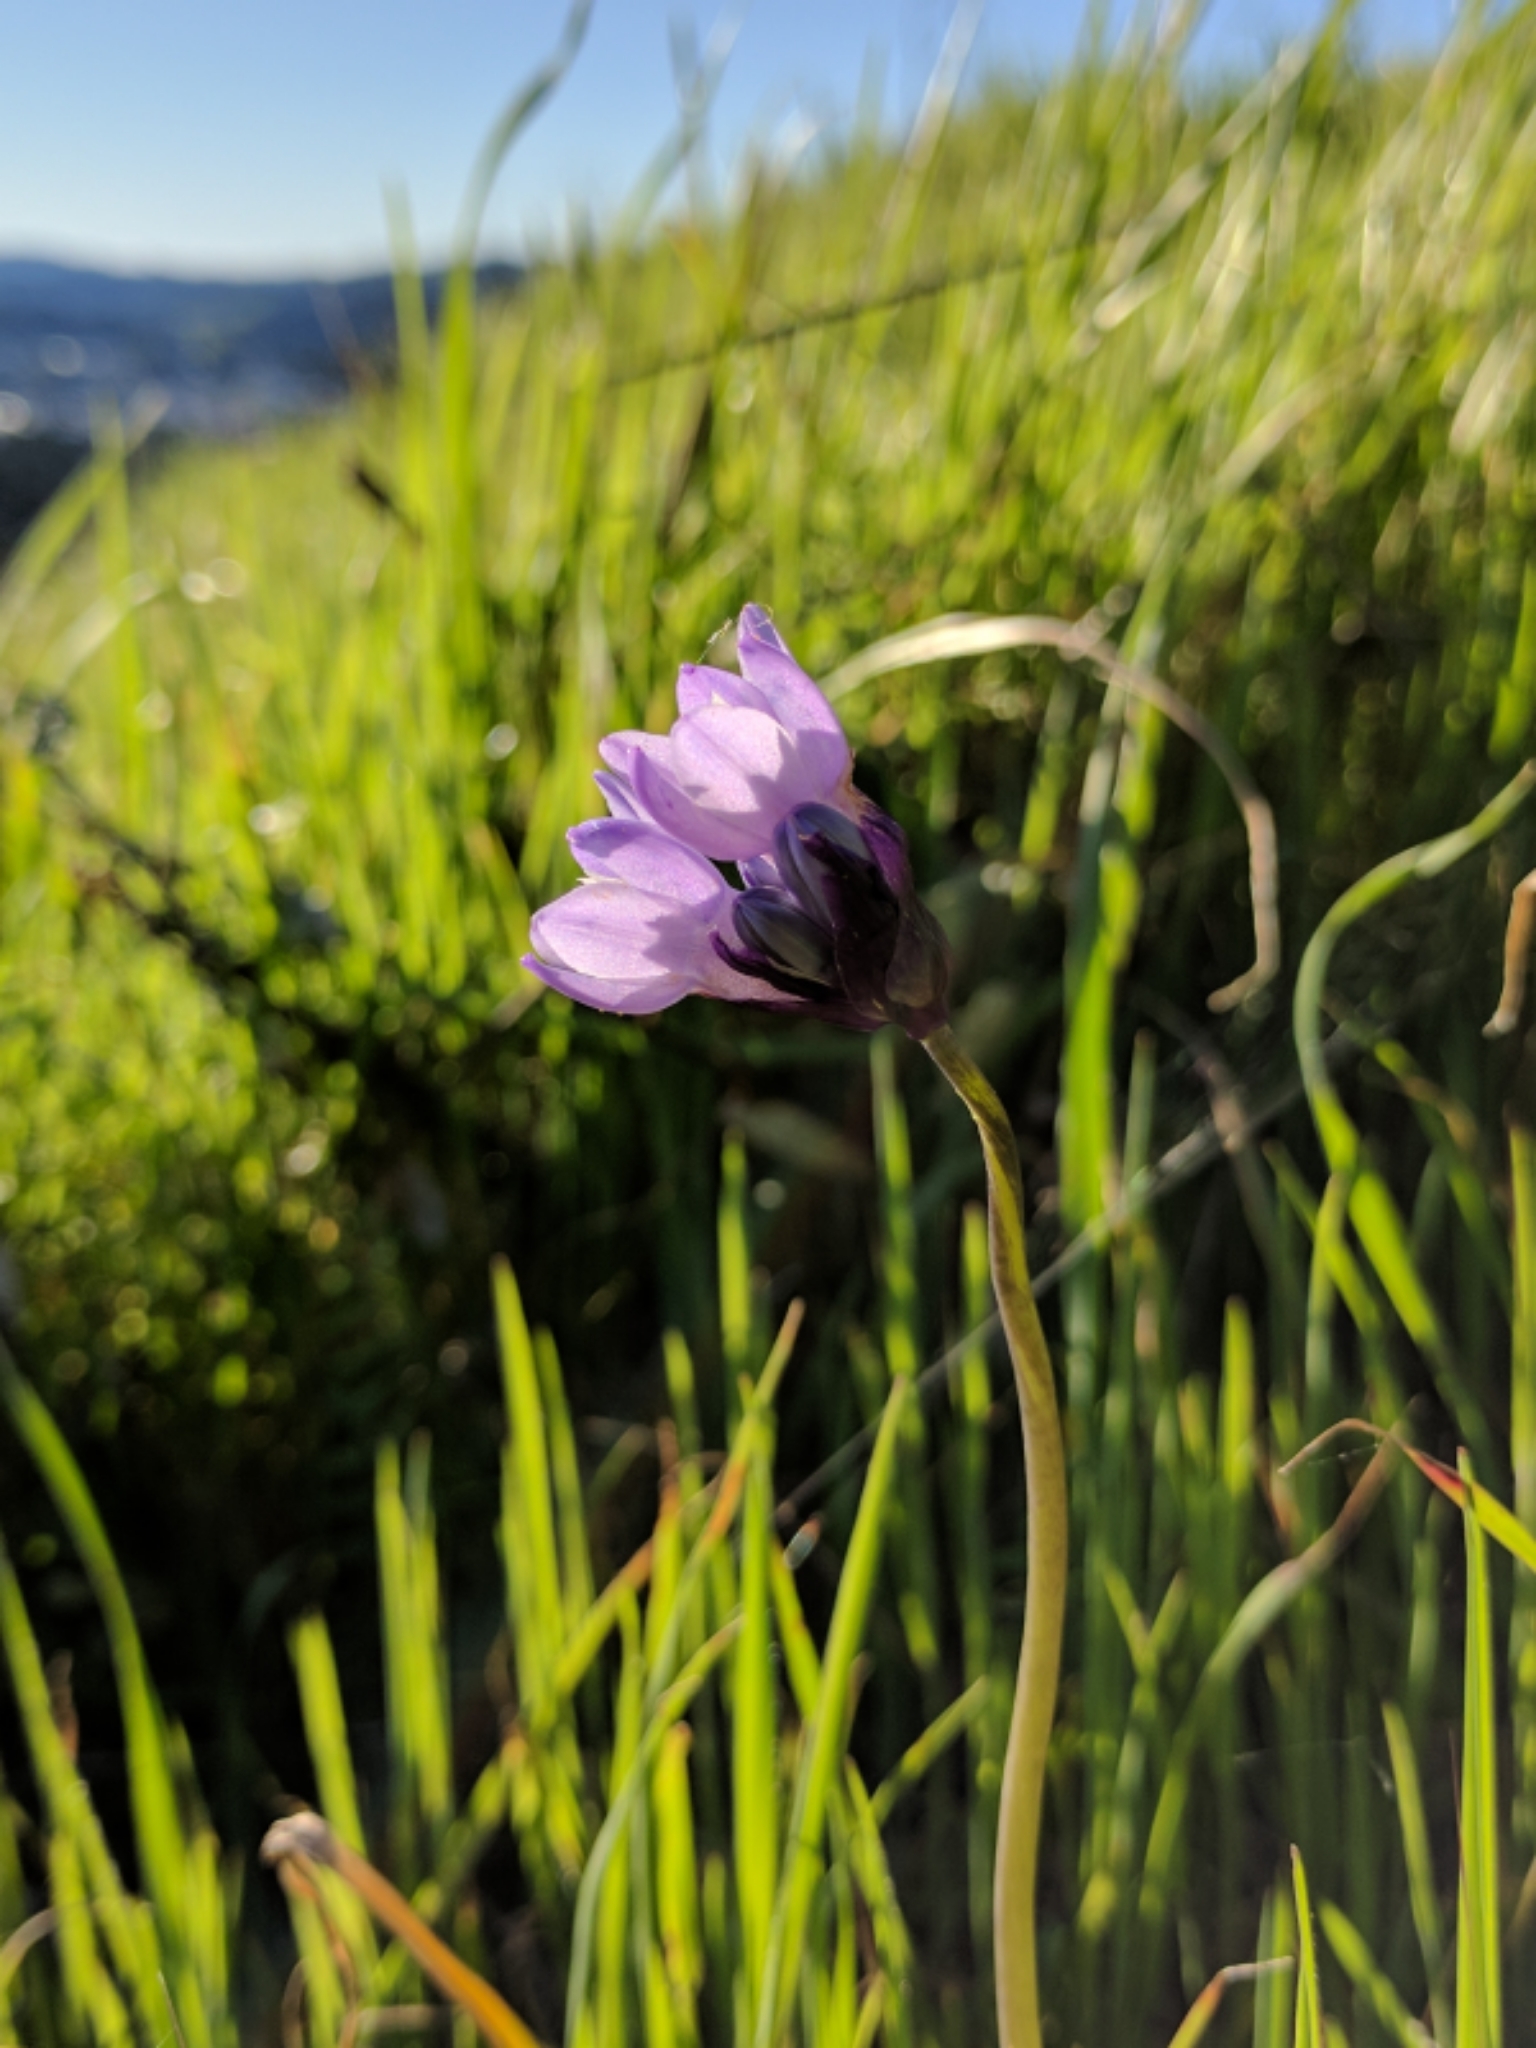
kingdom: Plantae
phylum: Tracheophyta
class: Liliopsida
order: Asparagales
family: Asparagaceae
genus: Dipterostemon
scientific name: Dipterostemon capitatus
